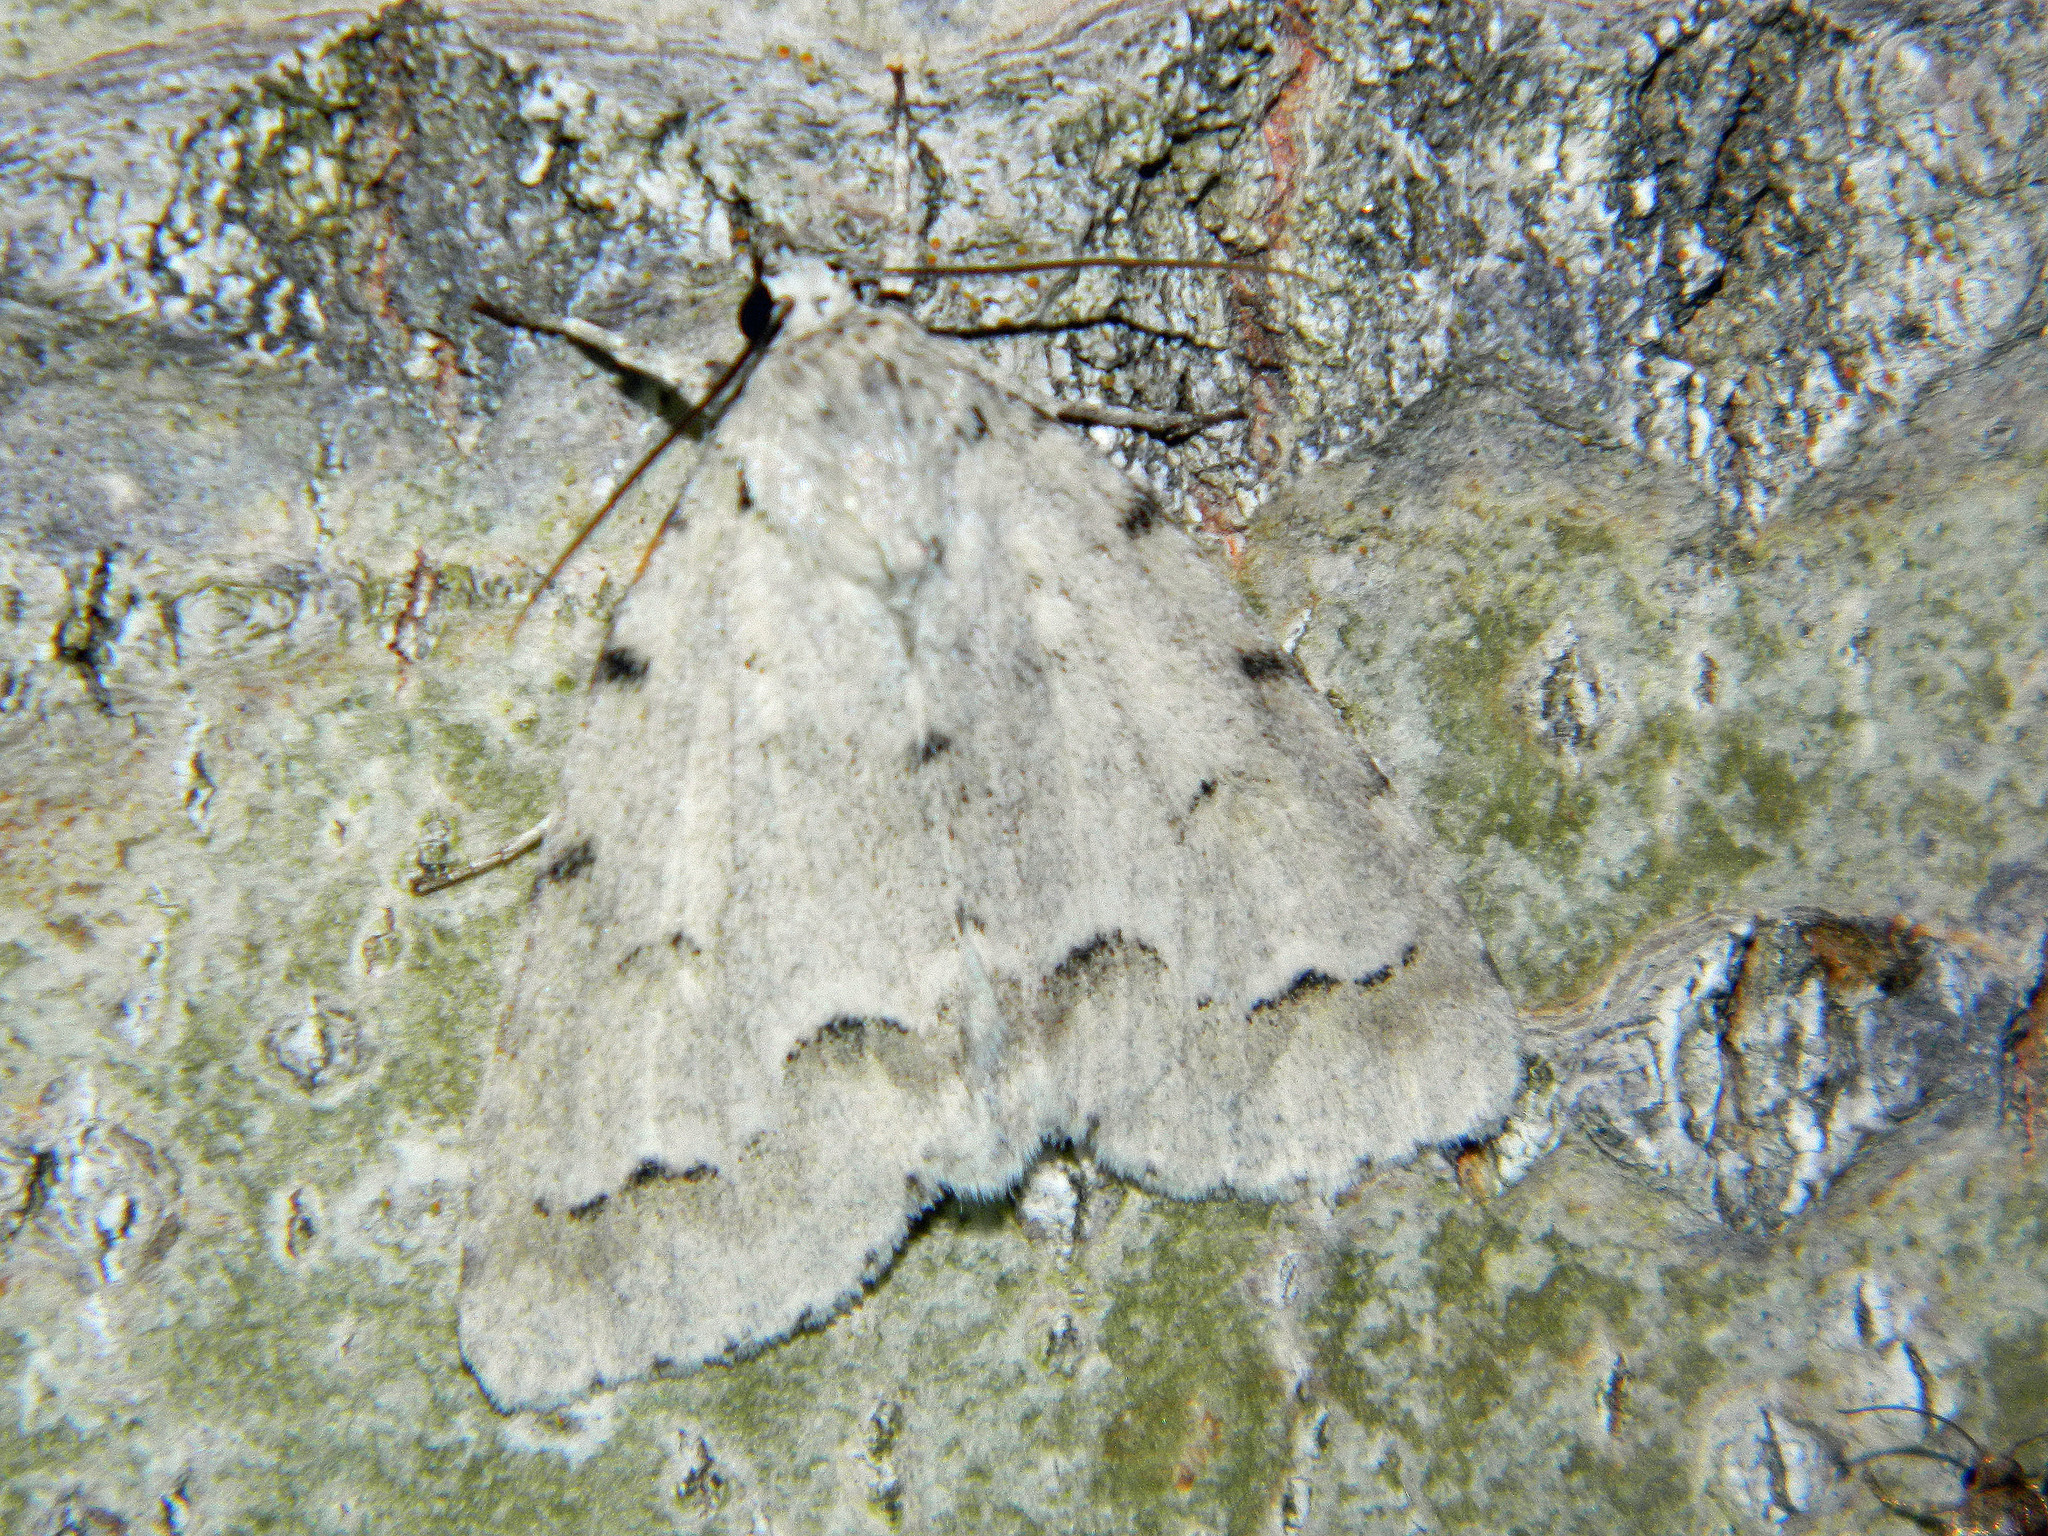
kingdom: Animalia
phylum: Arthropoda
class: Insecta
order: Lepidoptera
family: Noctuidae
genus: Acronicta
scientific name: Acronicta innotata
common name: Unmarked dagger
